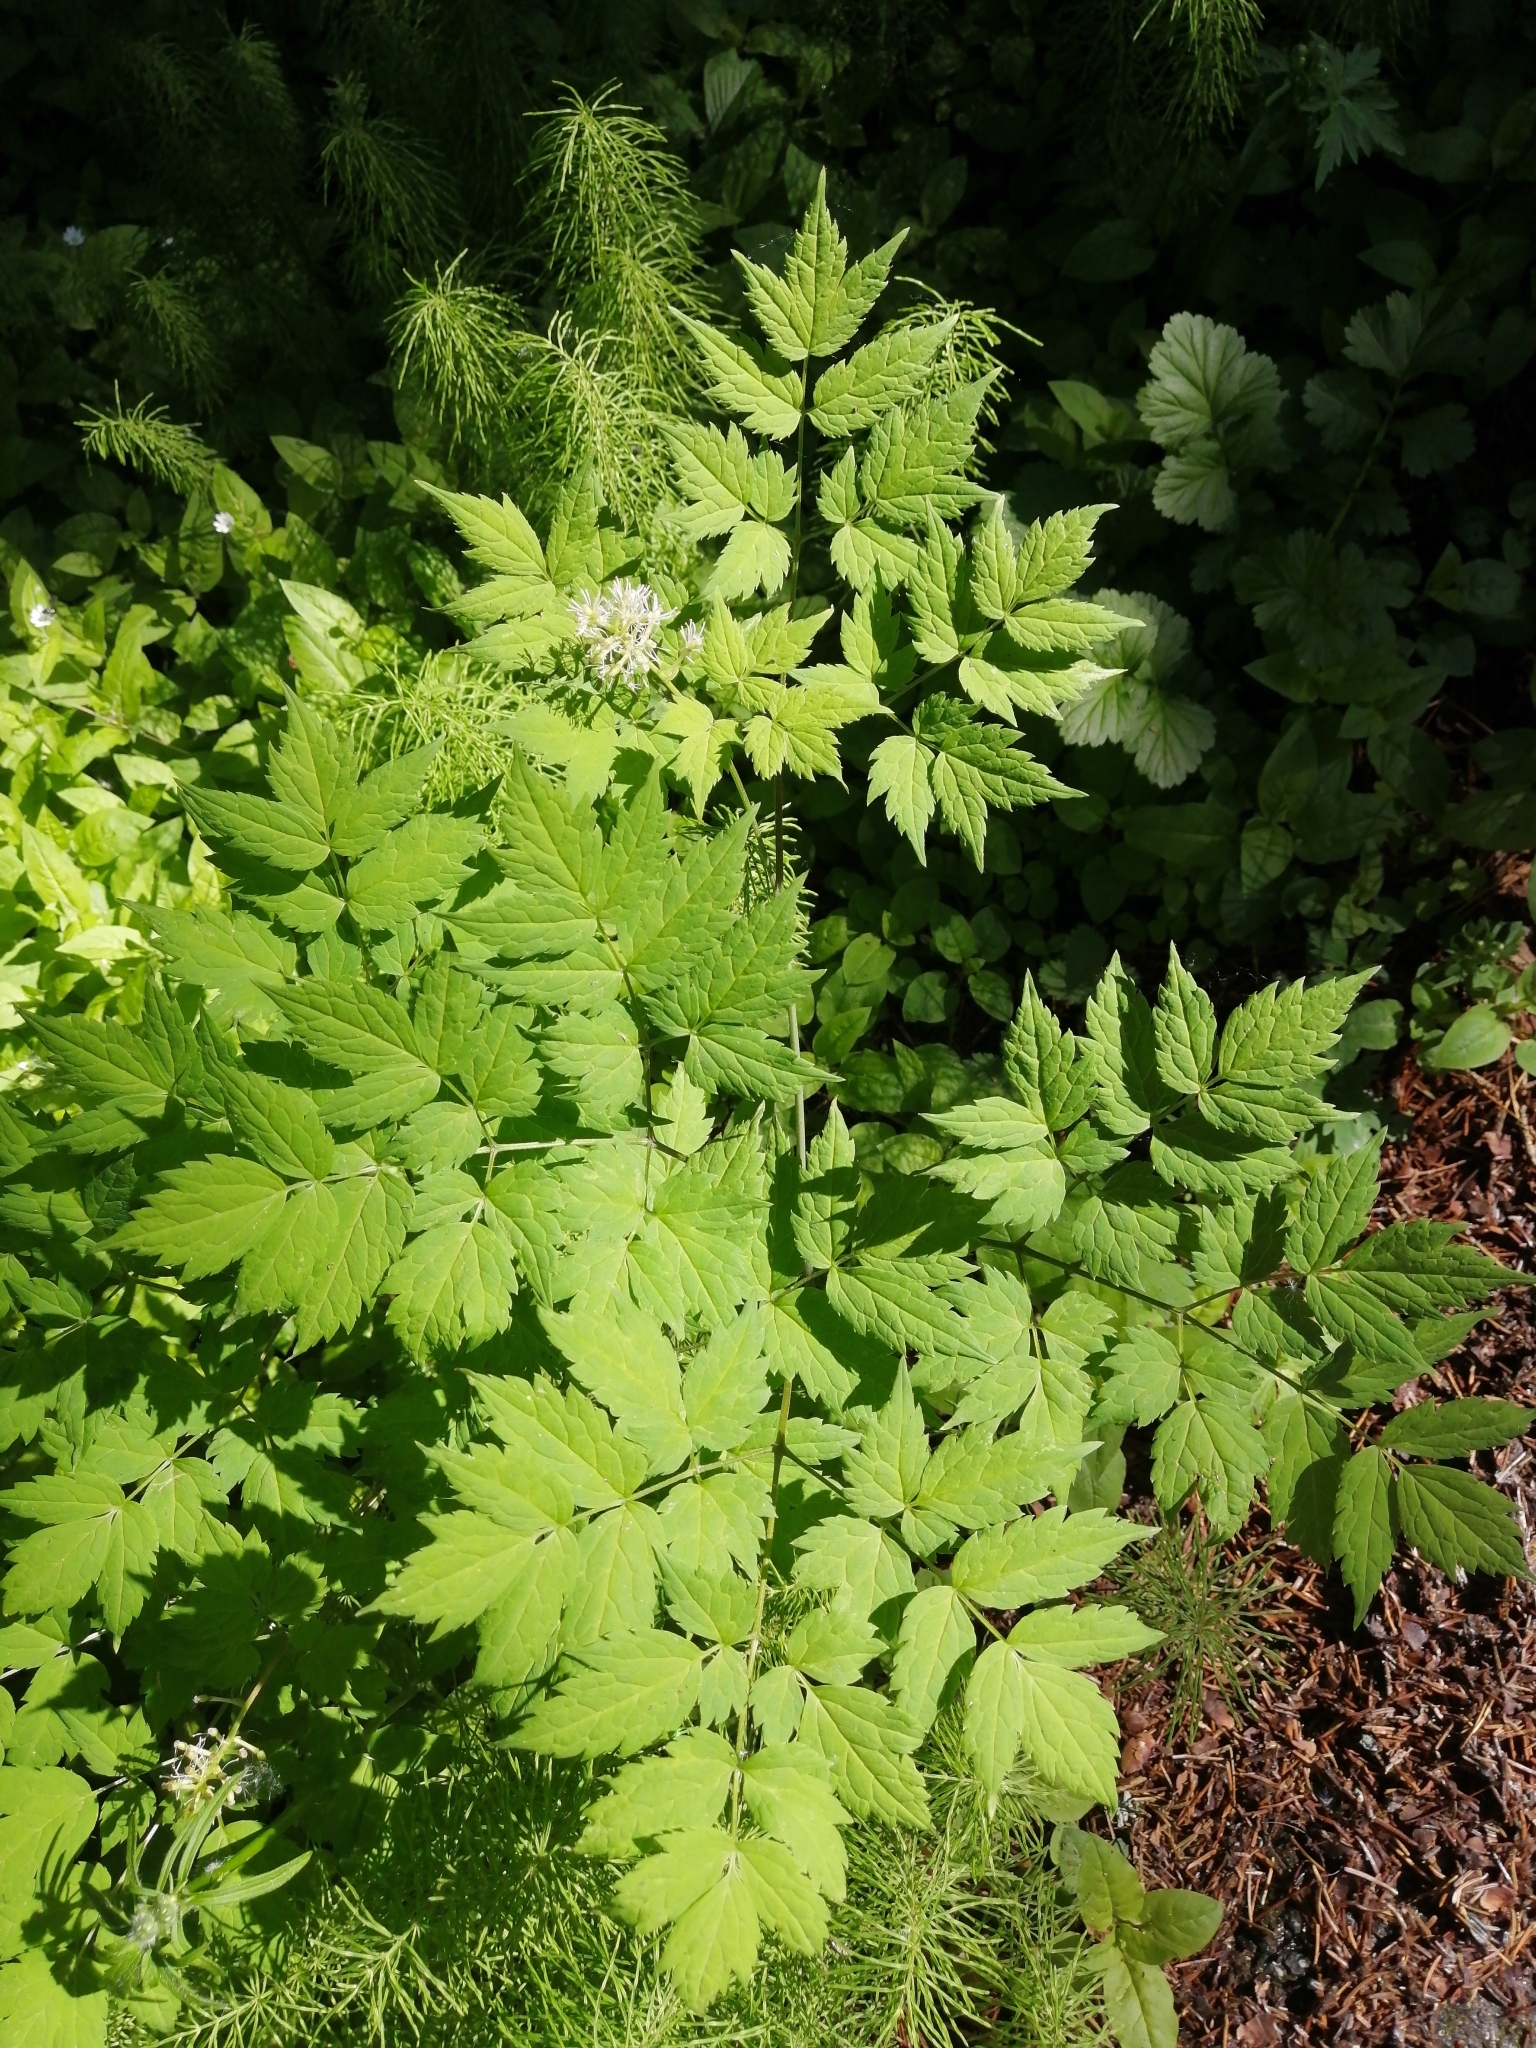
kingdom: Plantae
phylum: Tracheophyta
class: Magnoliopsida
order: Ranunculales
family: Ranunculaceae
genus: Actaea
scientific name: Actaea erythrocarpa
